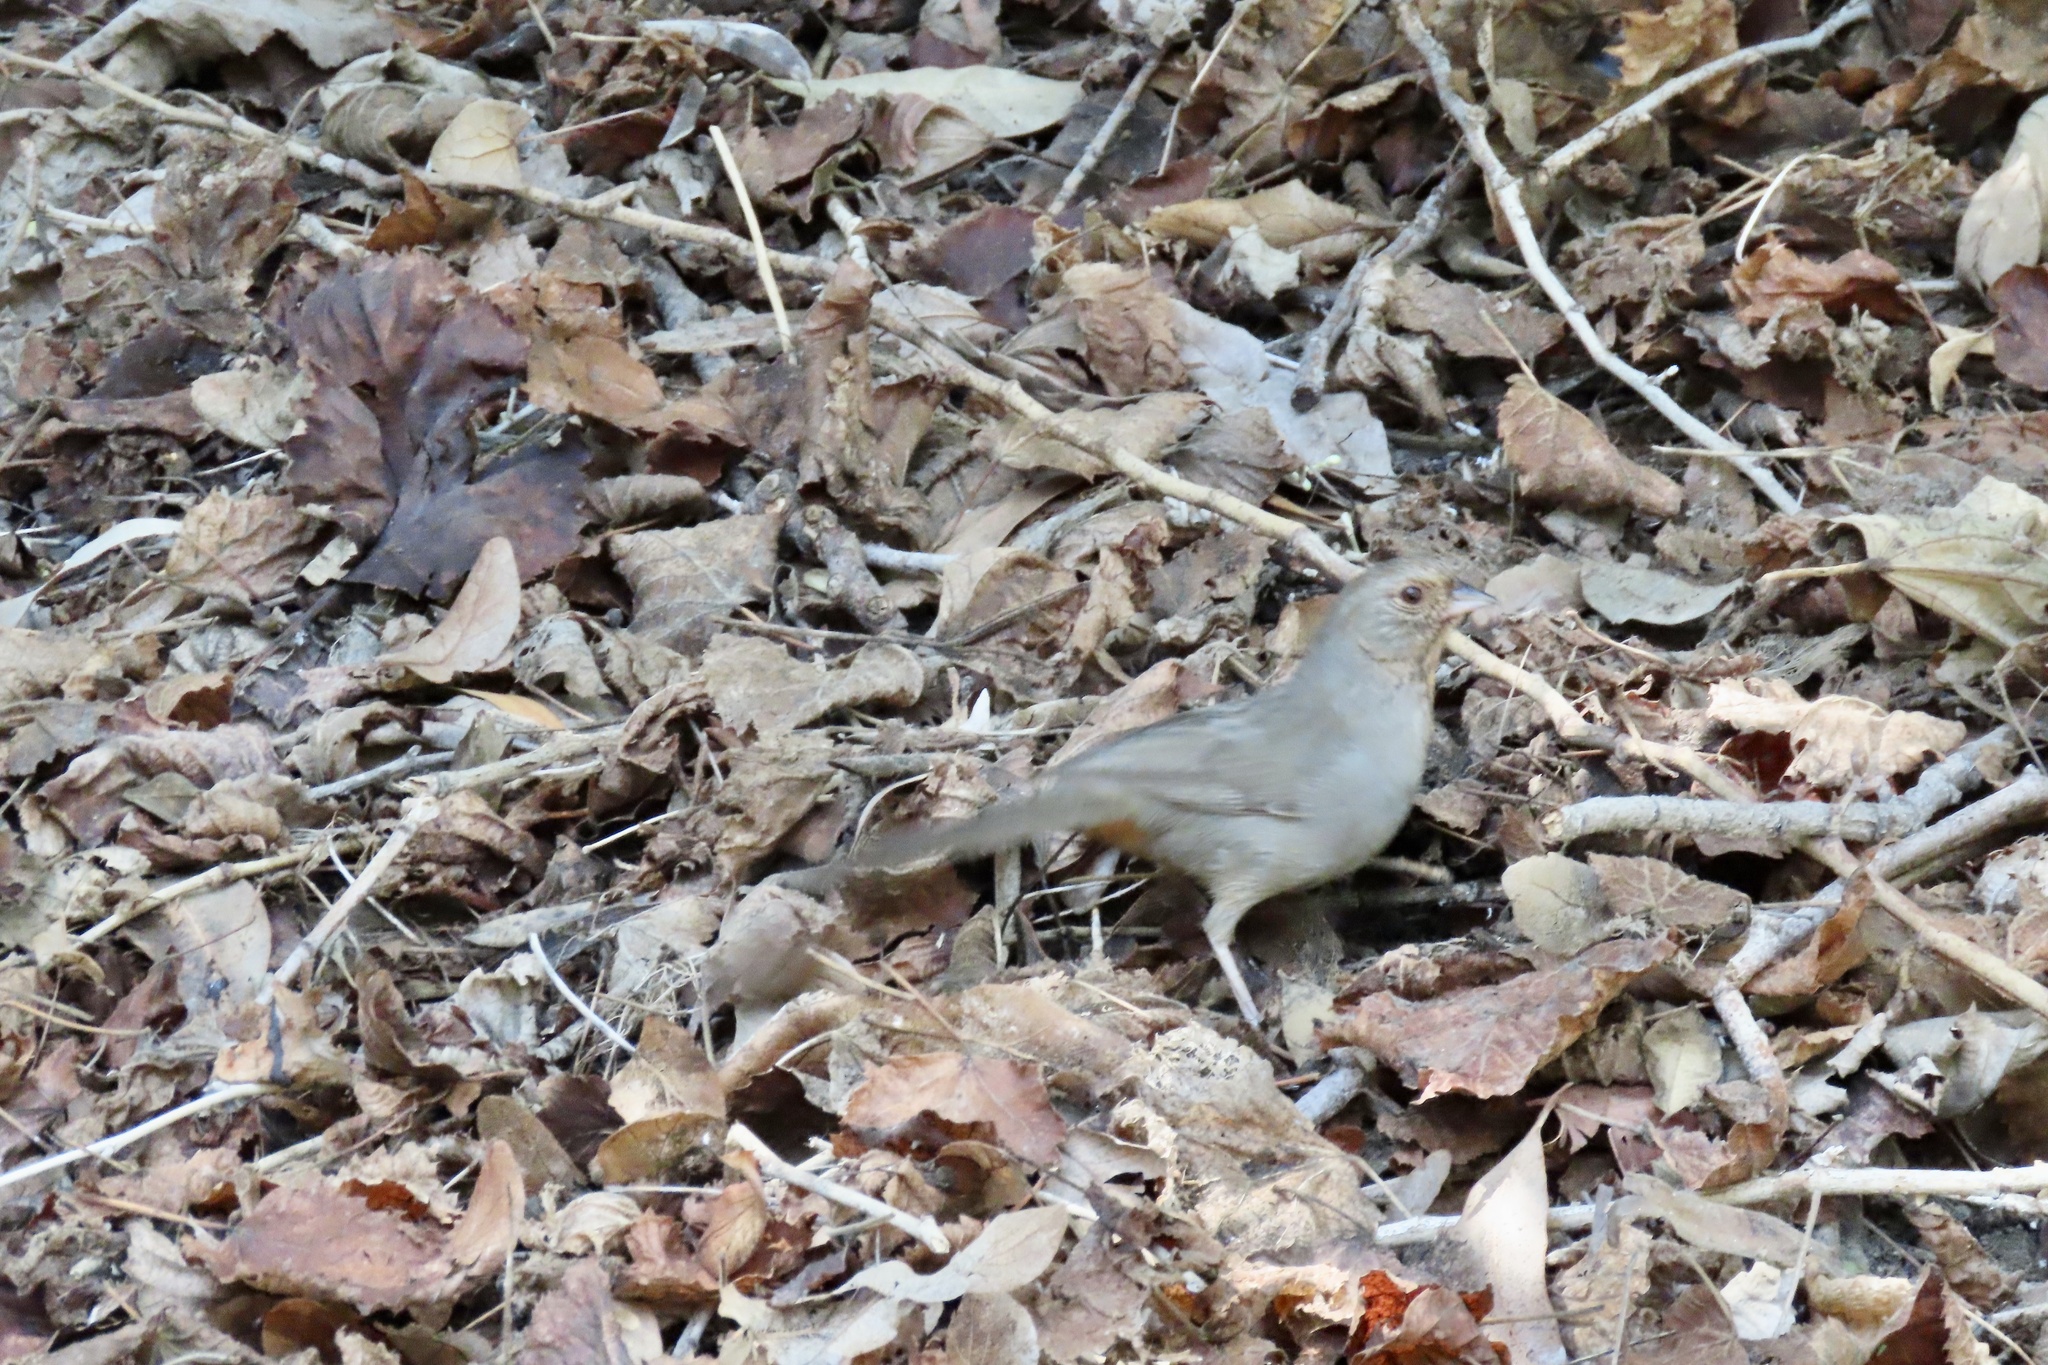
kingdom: Animalia
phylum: Chordata
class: Aves
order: Passeriformes
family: Passerellidae
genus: Melozone
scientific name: Melozone crissalis
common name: California towhee
